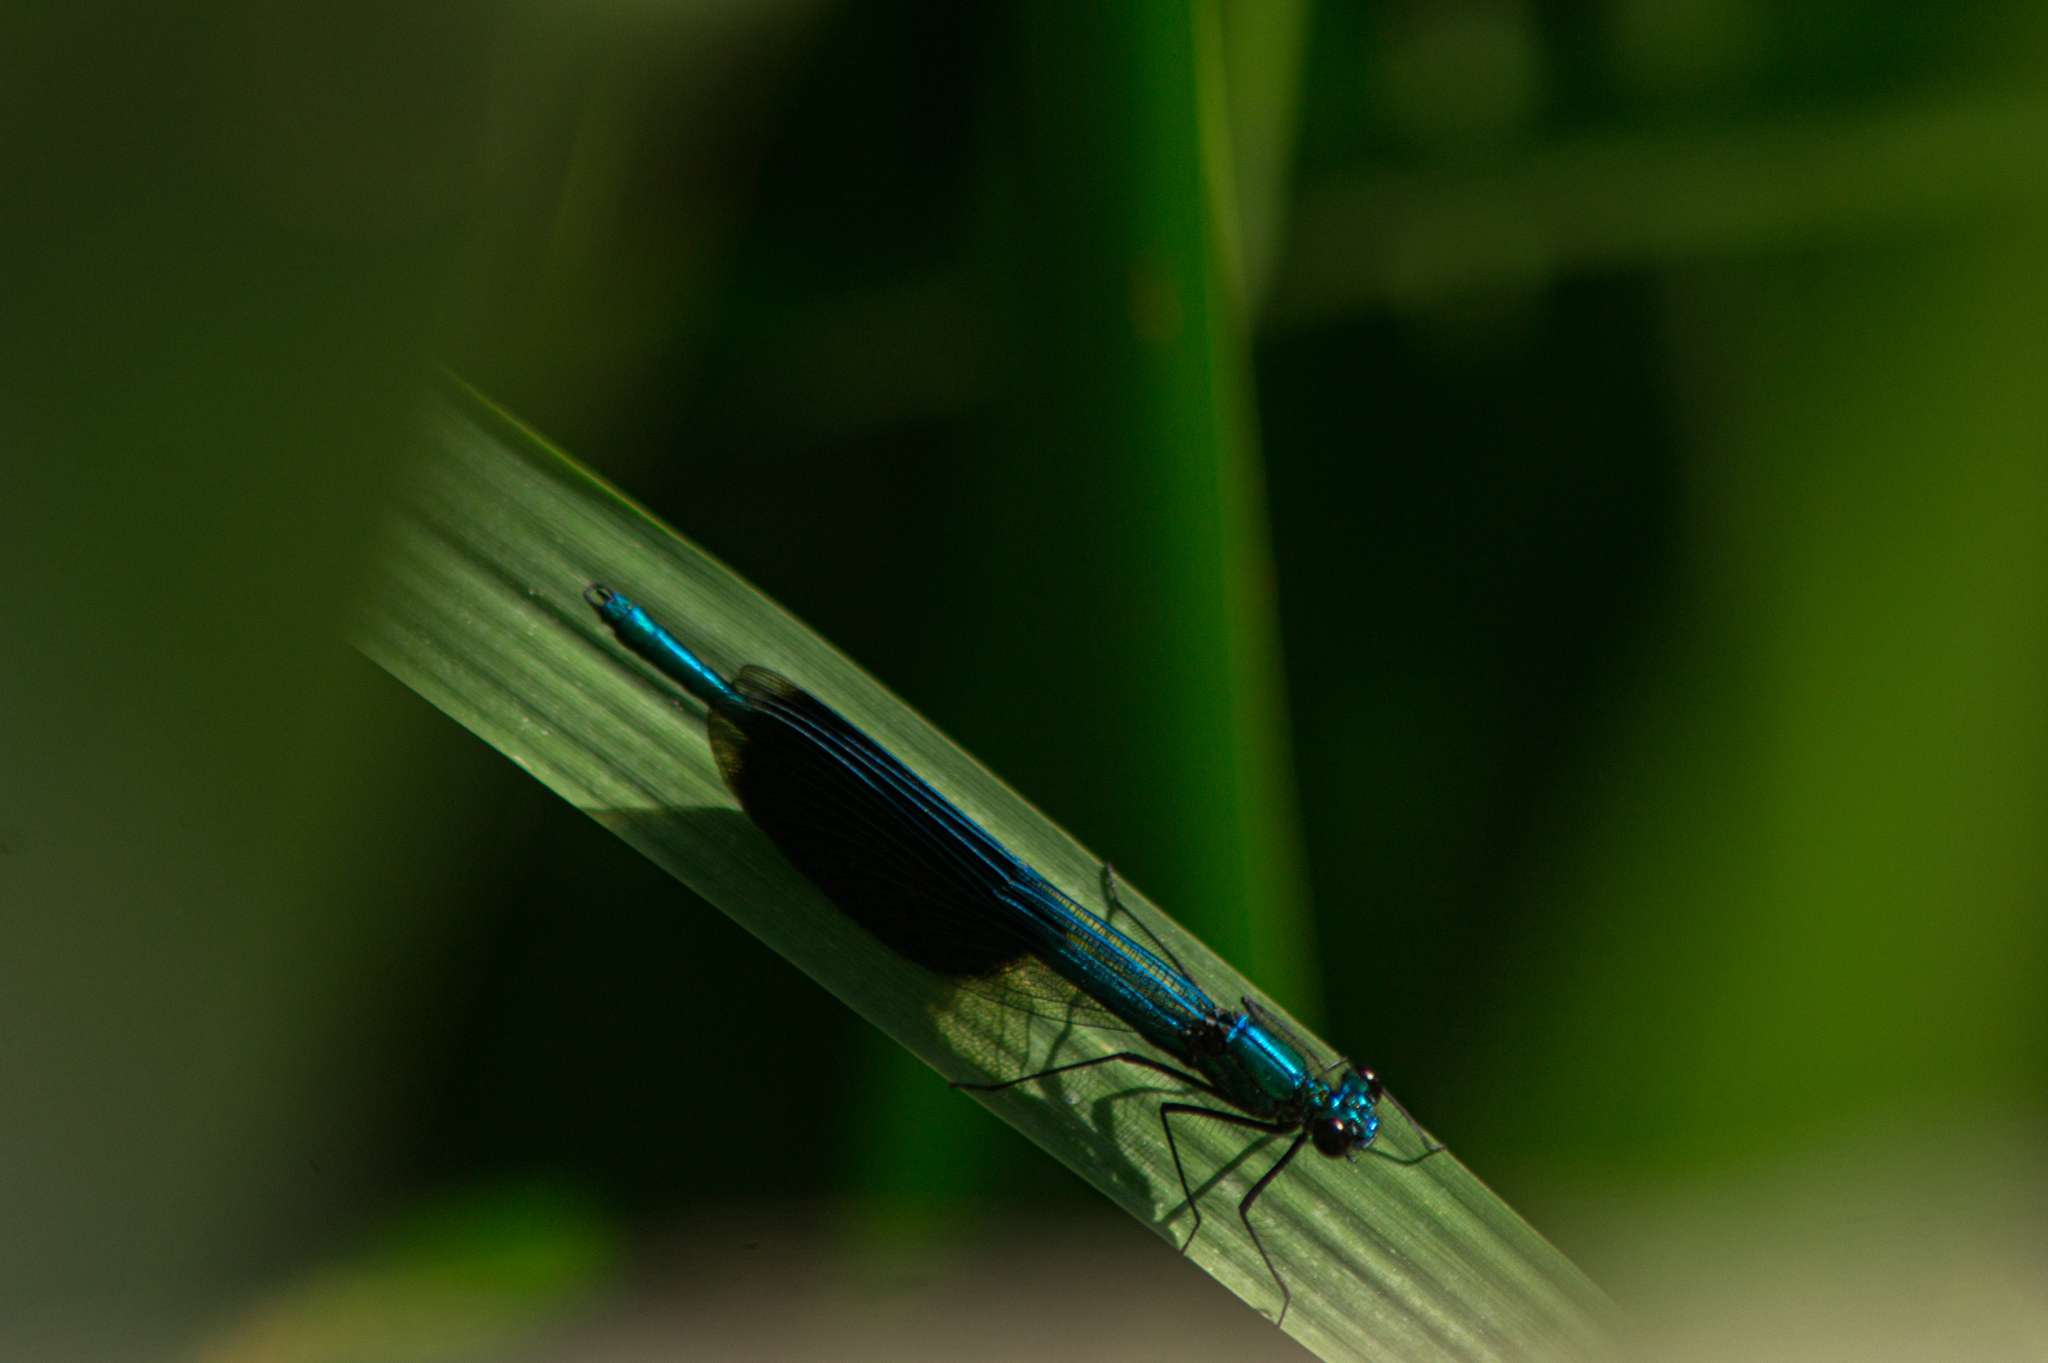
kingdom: Animalia
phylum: Arthropoda
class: Insecta
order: Odonata
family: Calopterygidae
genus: Calopteryx
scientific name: Calopteryx splendens
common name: Banded demoiselle
